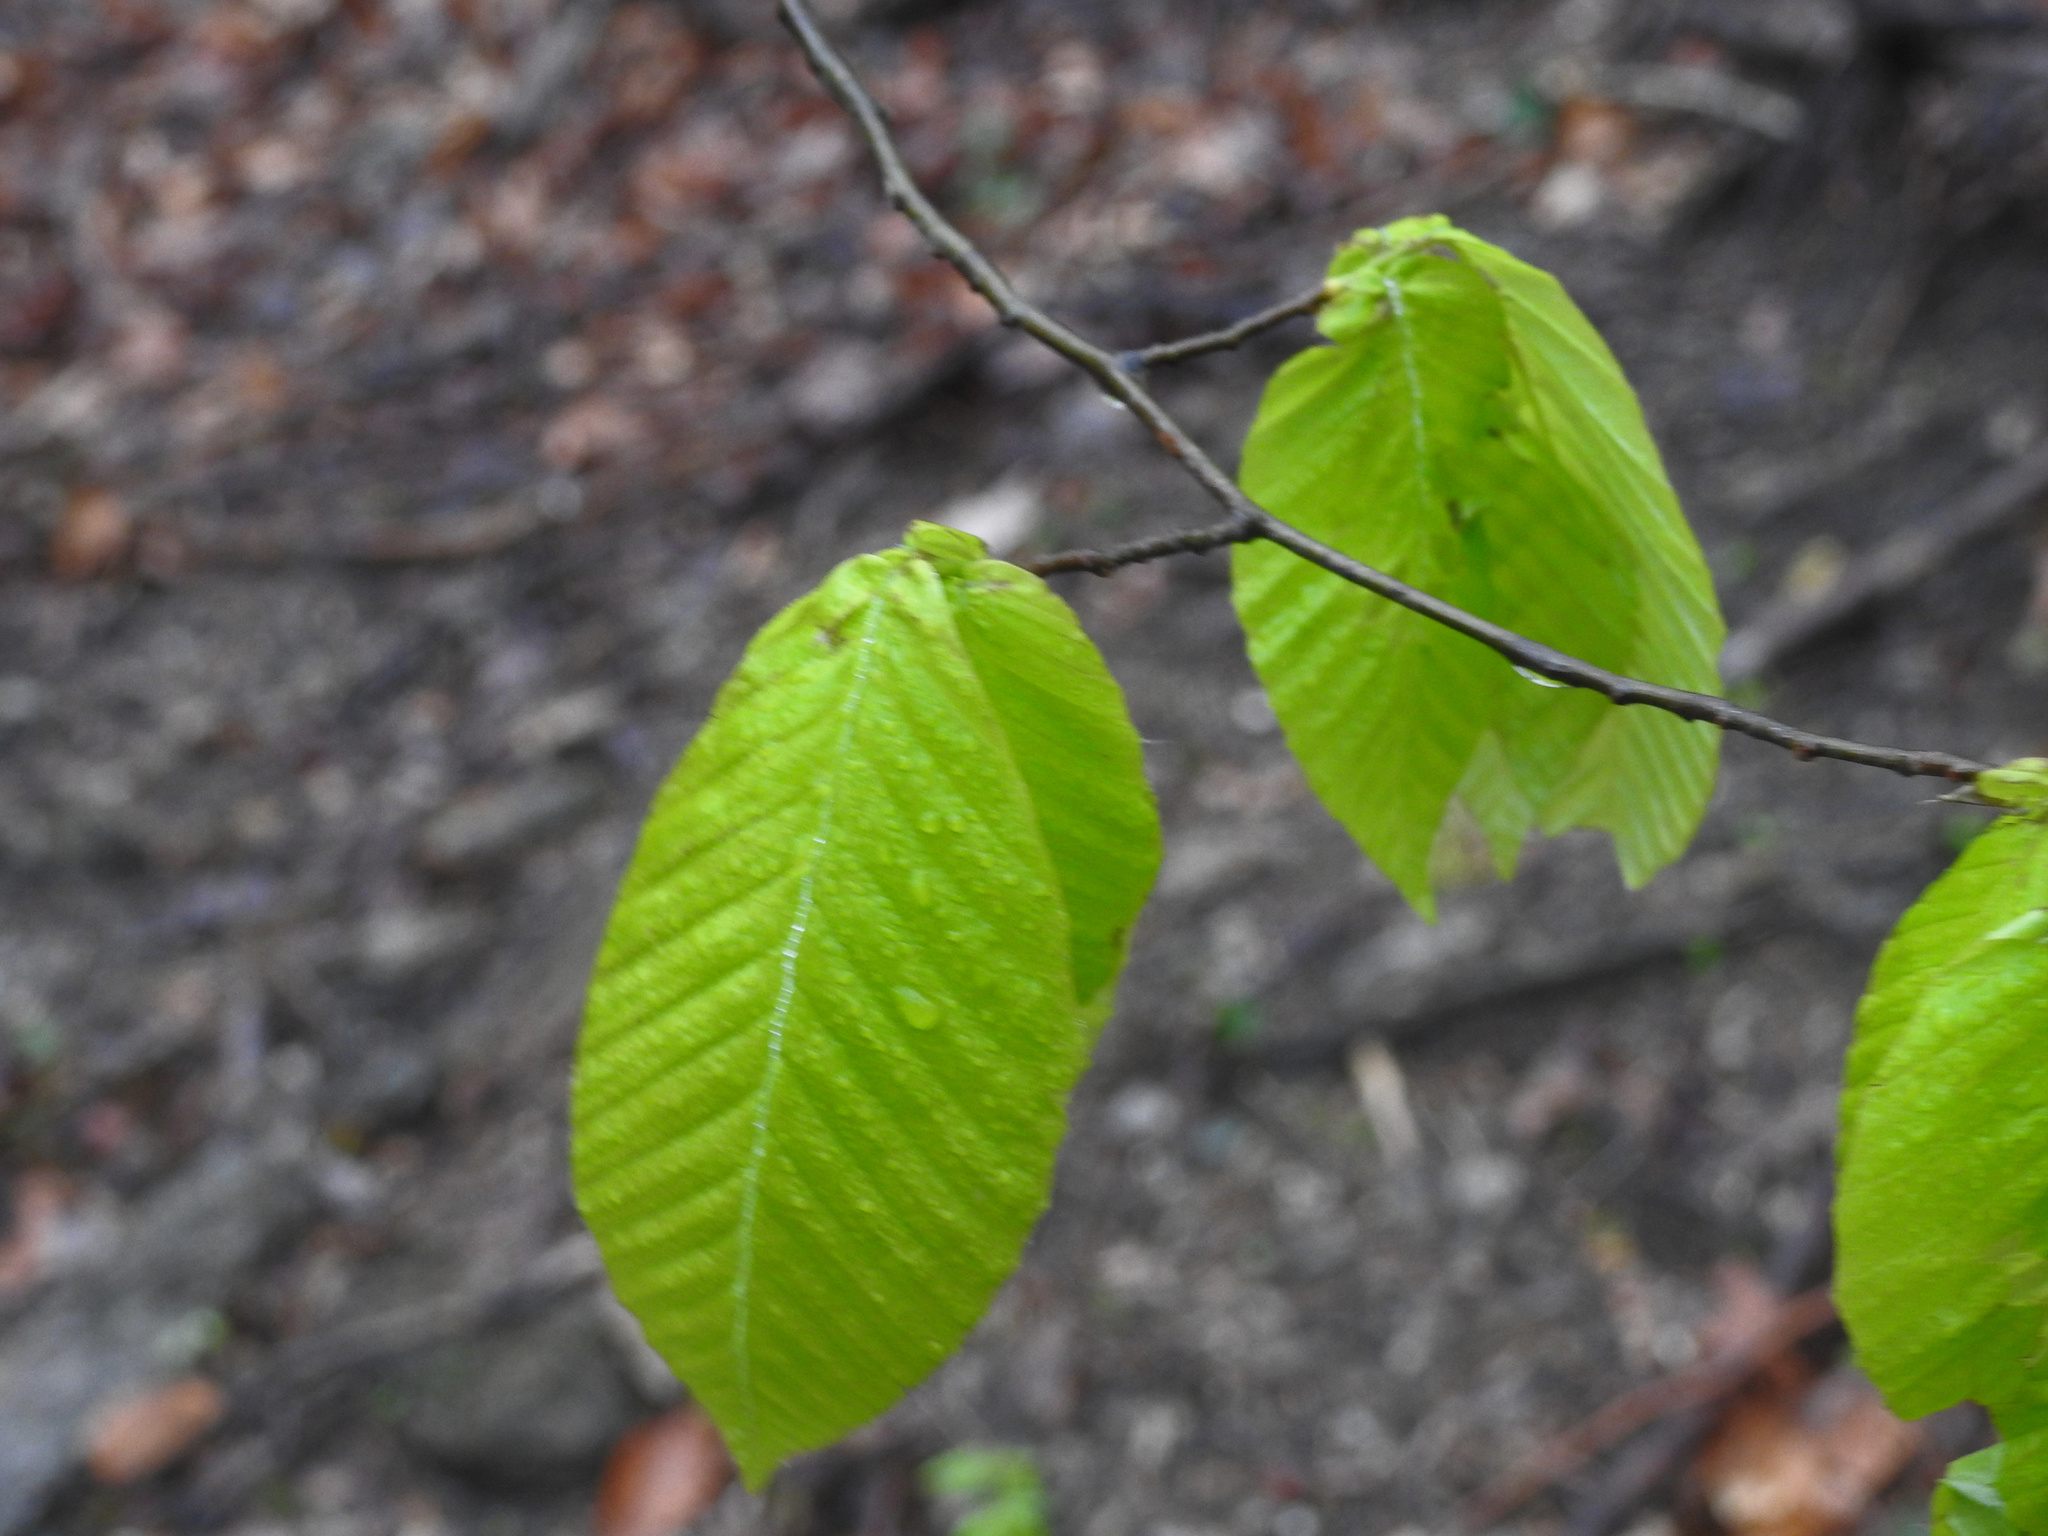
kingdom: Plantae
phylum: Tracheophyta
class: Magnoliopsida
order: Fagales
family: Fagaceae
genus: Fagus
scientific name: Fagus grandifolia
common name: American beech
